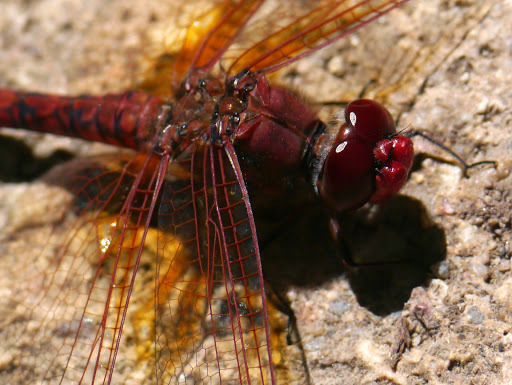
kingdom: Animalia
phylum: Arthropoda
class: Insecta
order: Odonata
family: Libellulidae
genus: Paltothemis
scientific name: Paltothemis lineatipes
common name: Red rock skimmer
